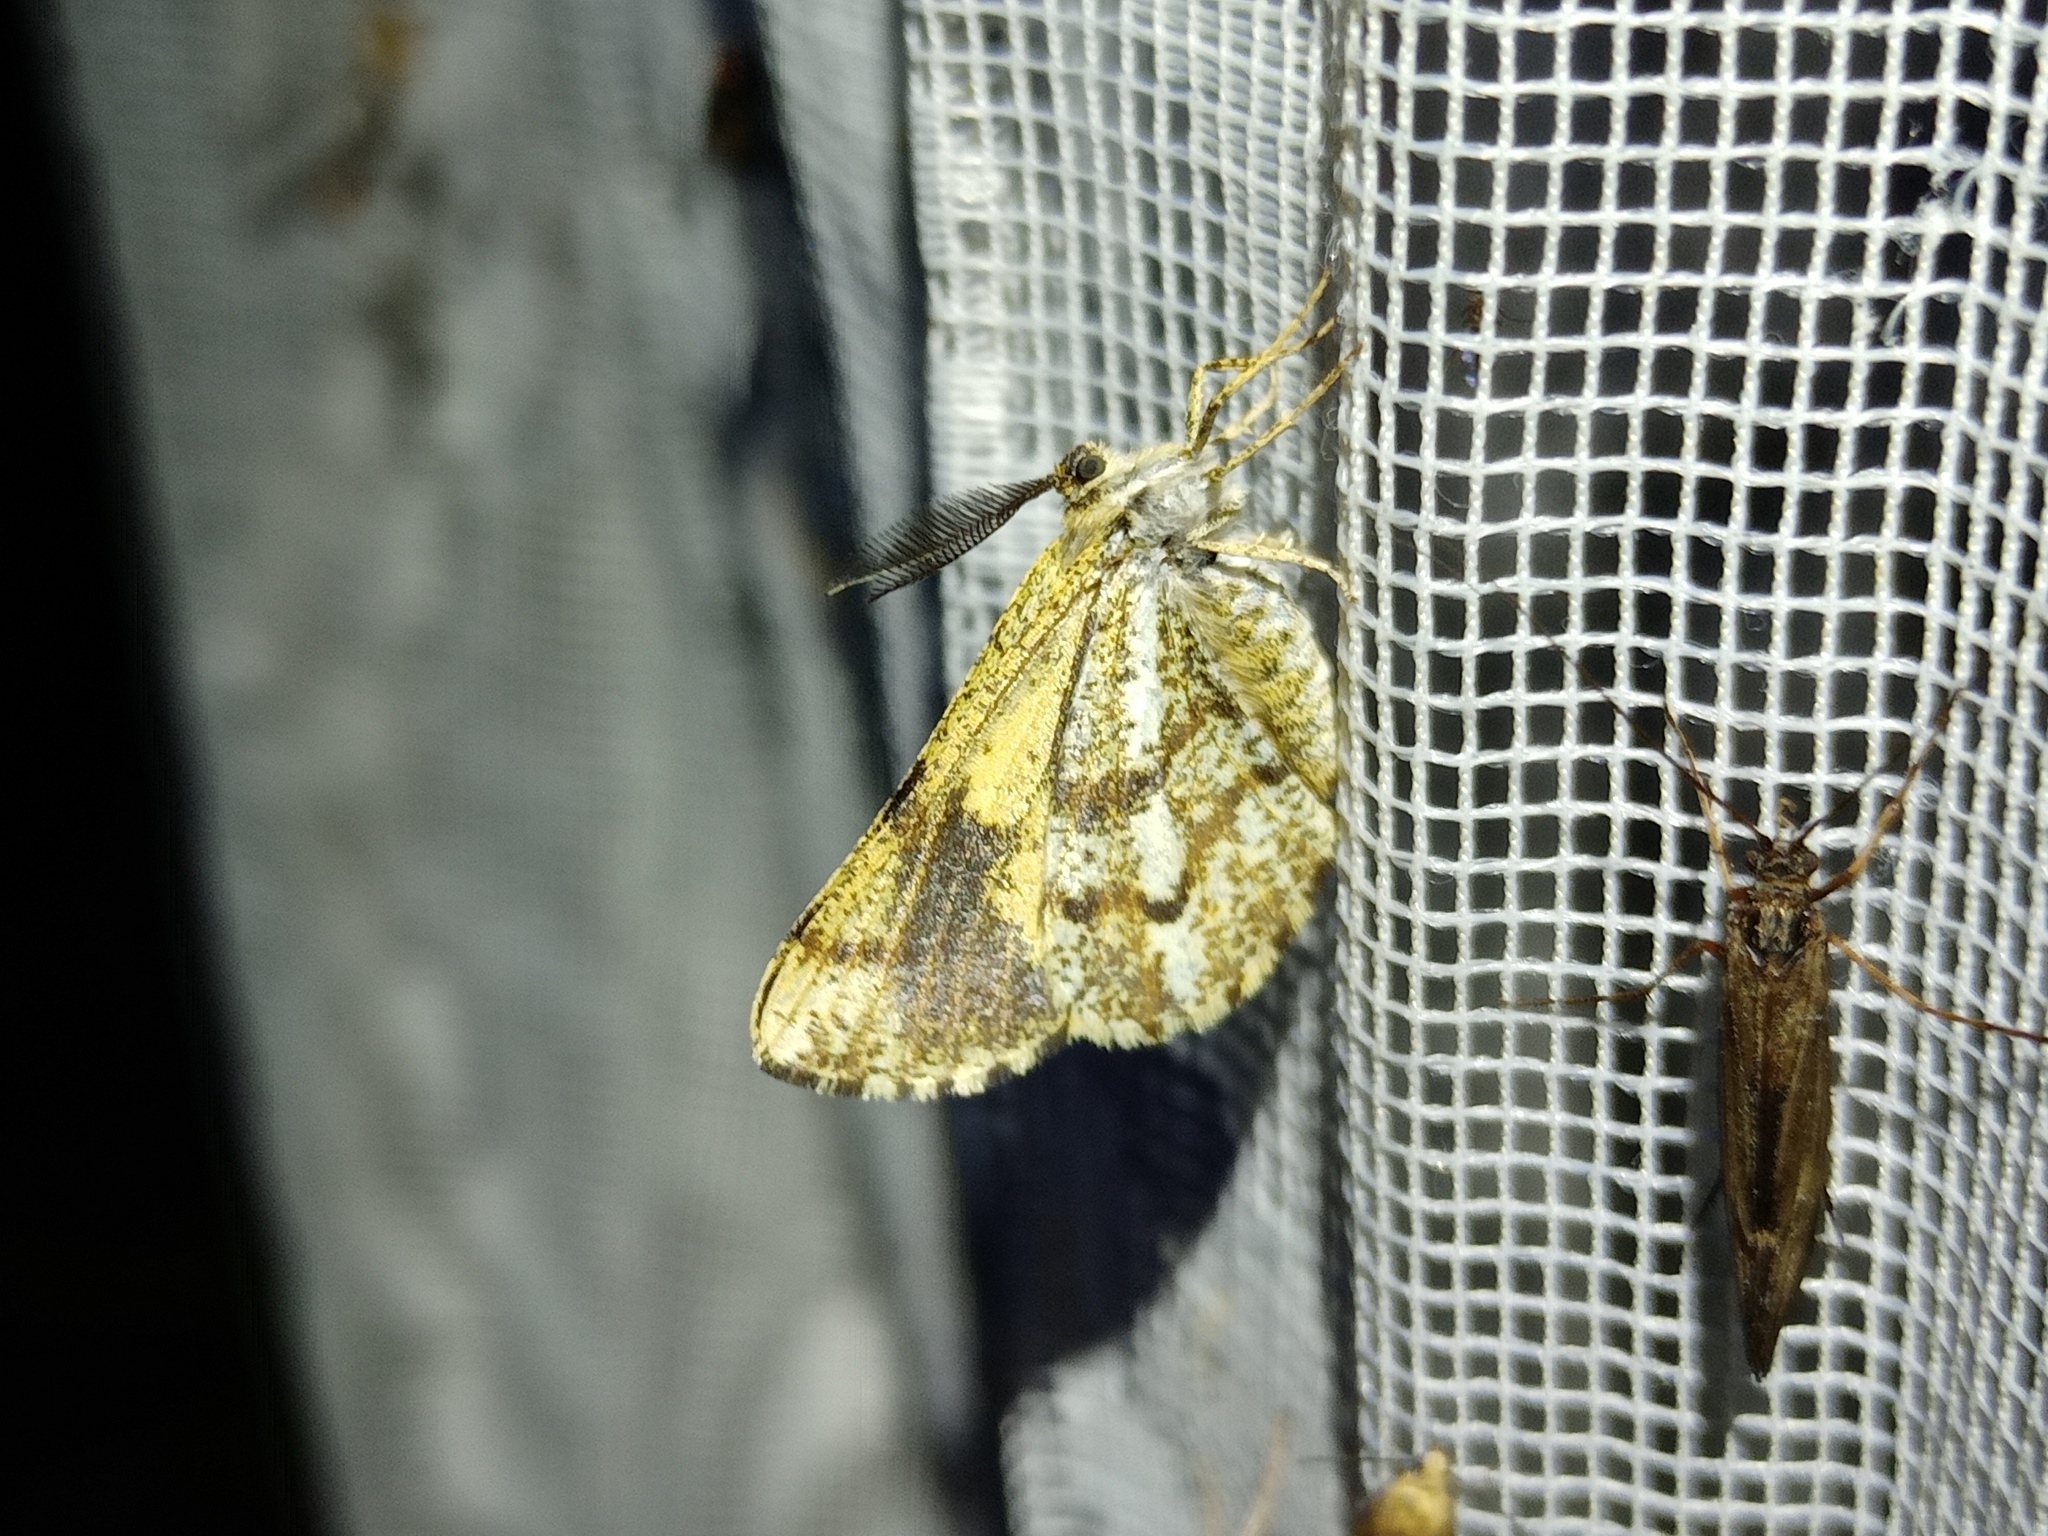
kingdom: Animalia
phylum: Arthropoda
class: Insecta
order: Lepidoptera
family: Geometridae
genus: Bupalus
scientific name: Bupalus piniaria
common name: Bordered white
